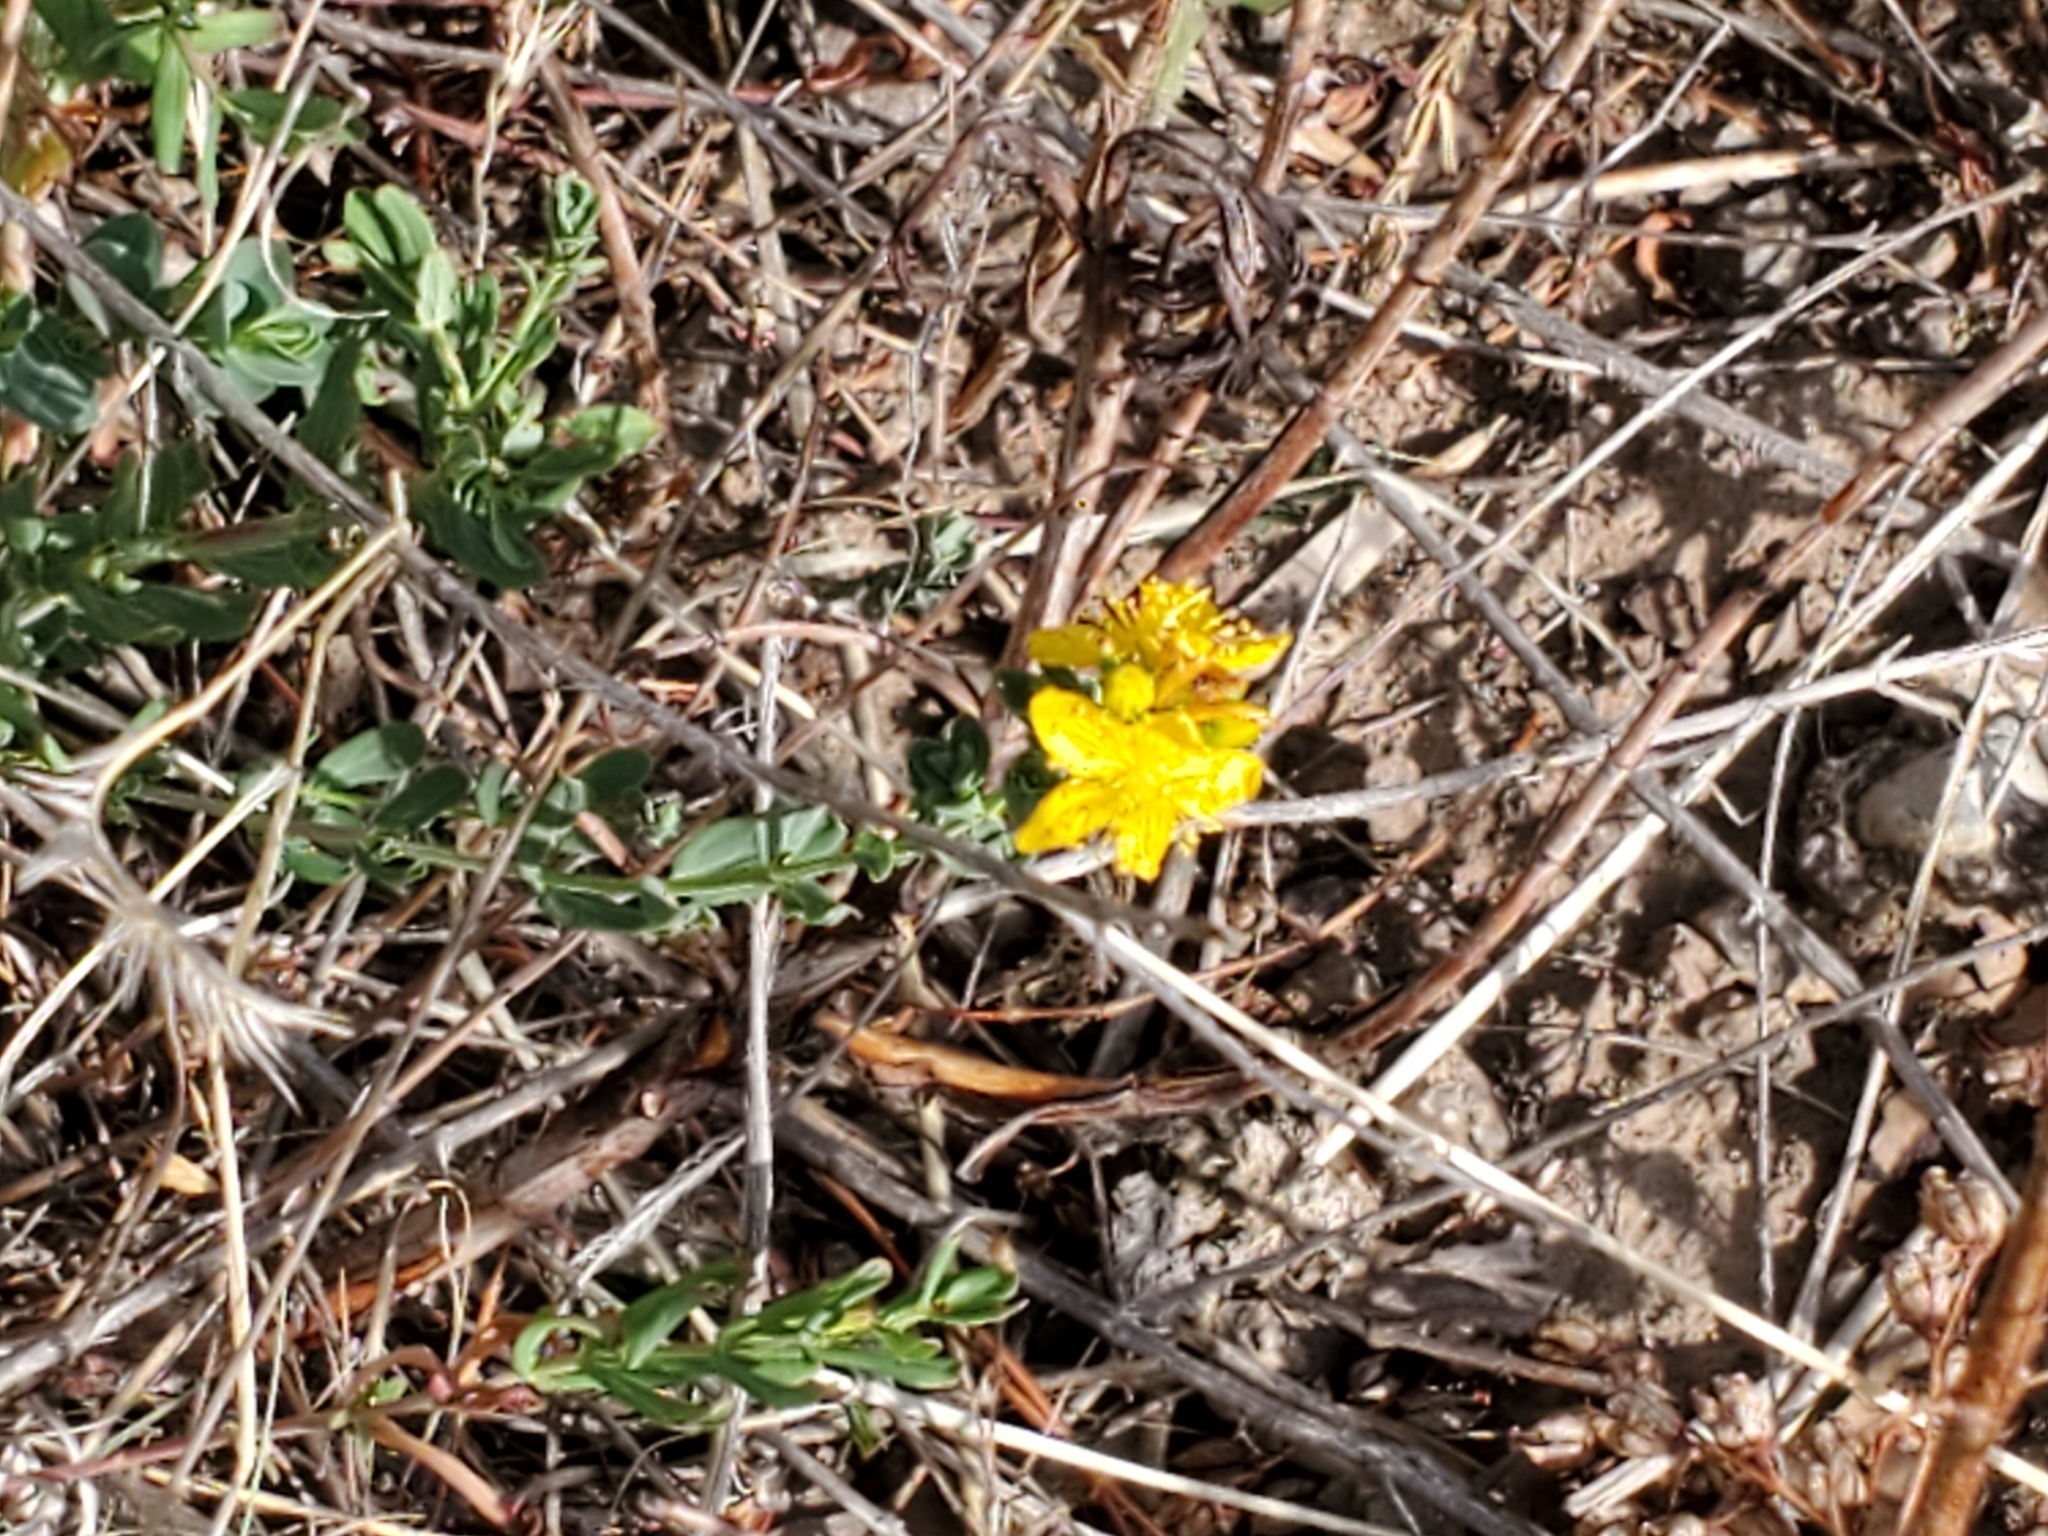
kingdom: Plantae
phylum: Tracheophyta
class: Magnoliopsida
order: Malpighiales
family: Hypericaceae
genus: Hypericum
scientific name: Hypericum perforatum
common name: Common st. johnswort
